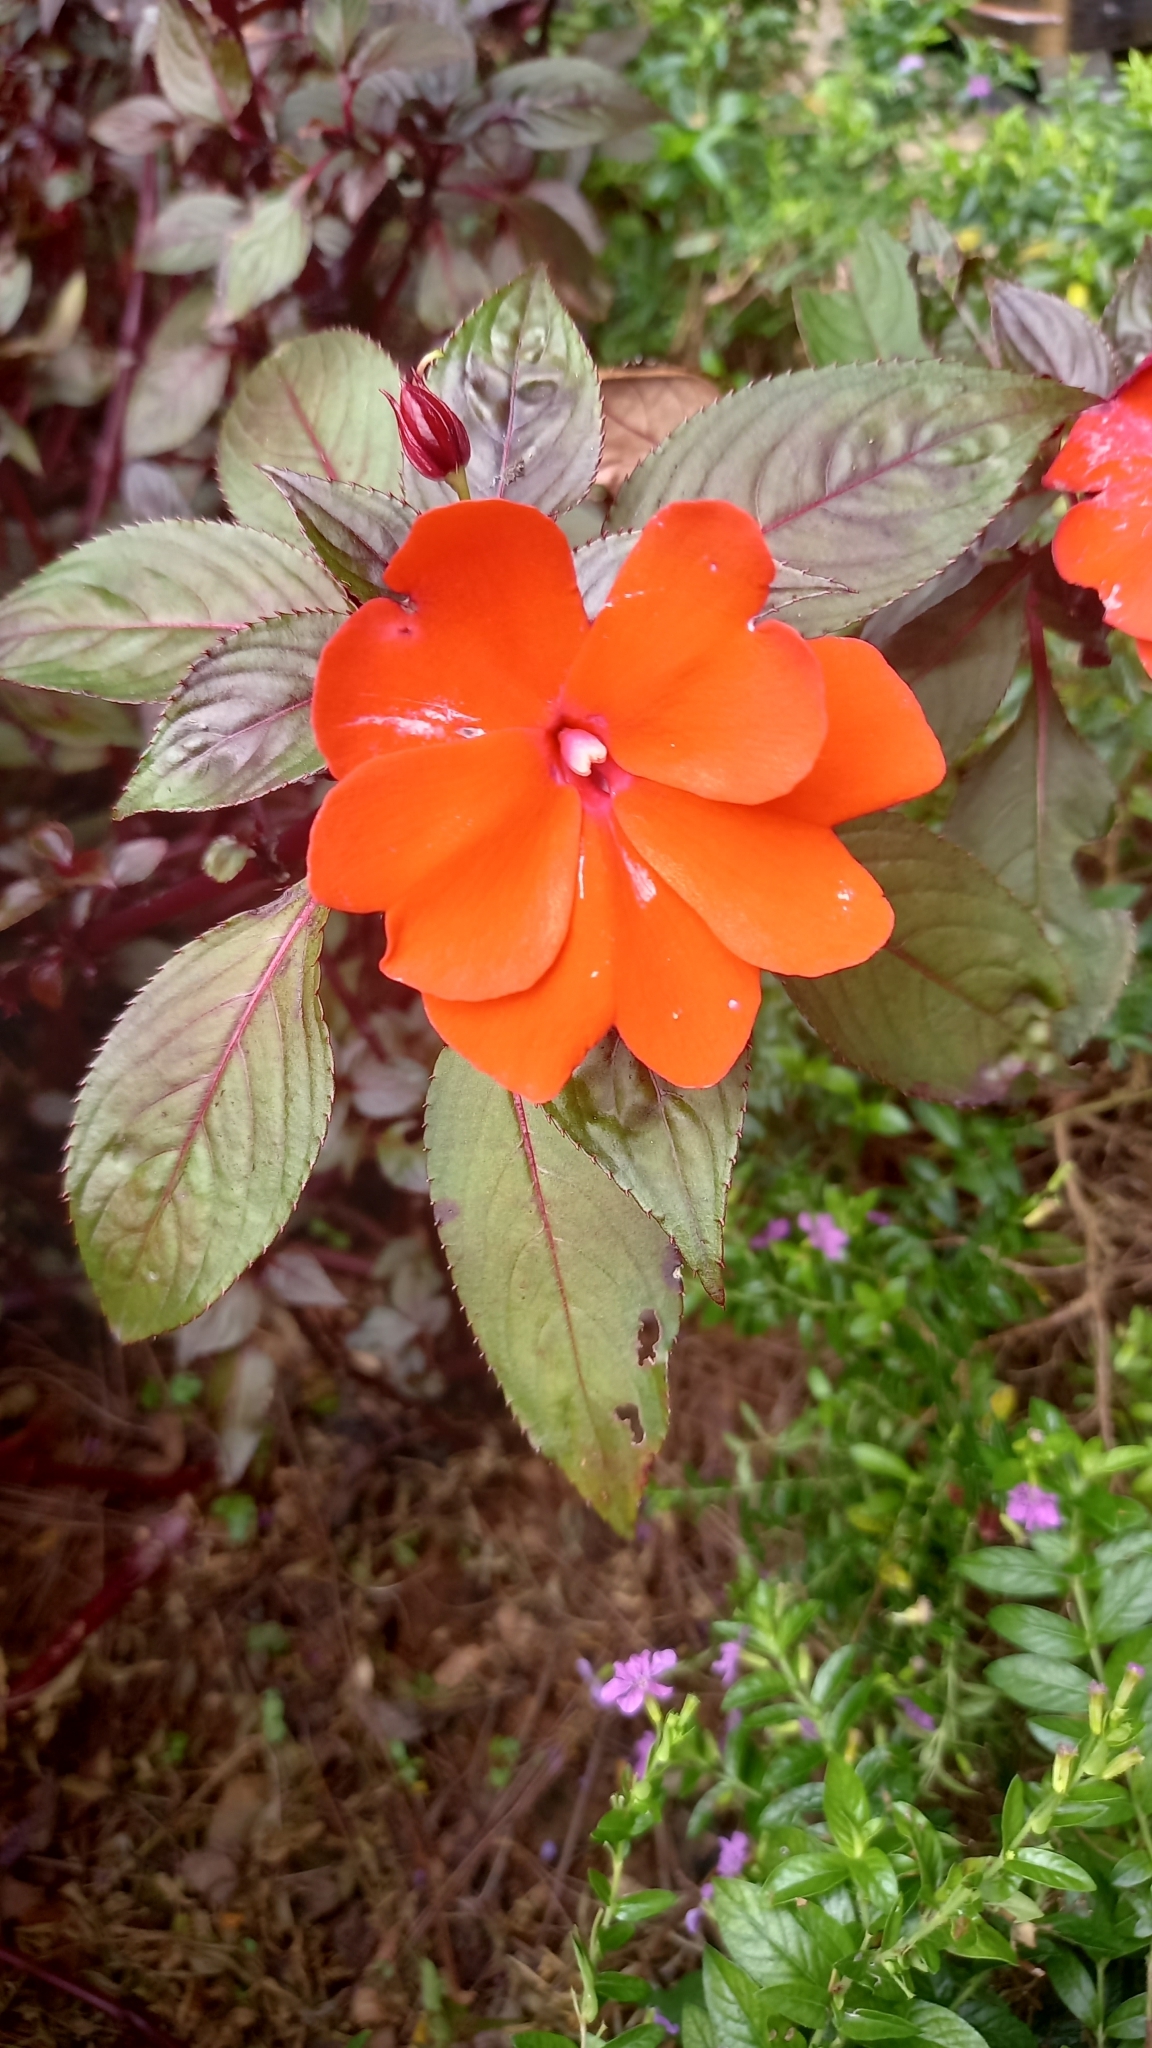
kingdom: Plantae
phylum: Tracheophyta
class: Magnoliopsida
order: Ericales
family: Balsaminaceae
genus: Impatiens
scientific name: Impatiens hawkeri
